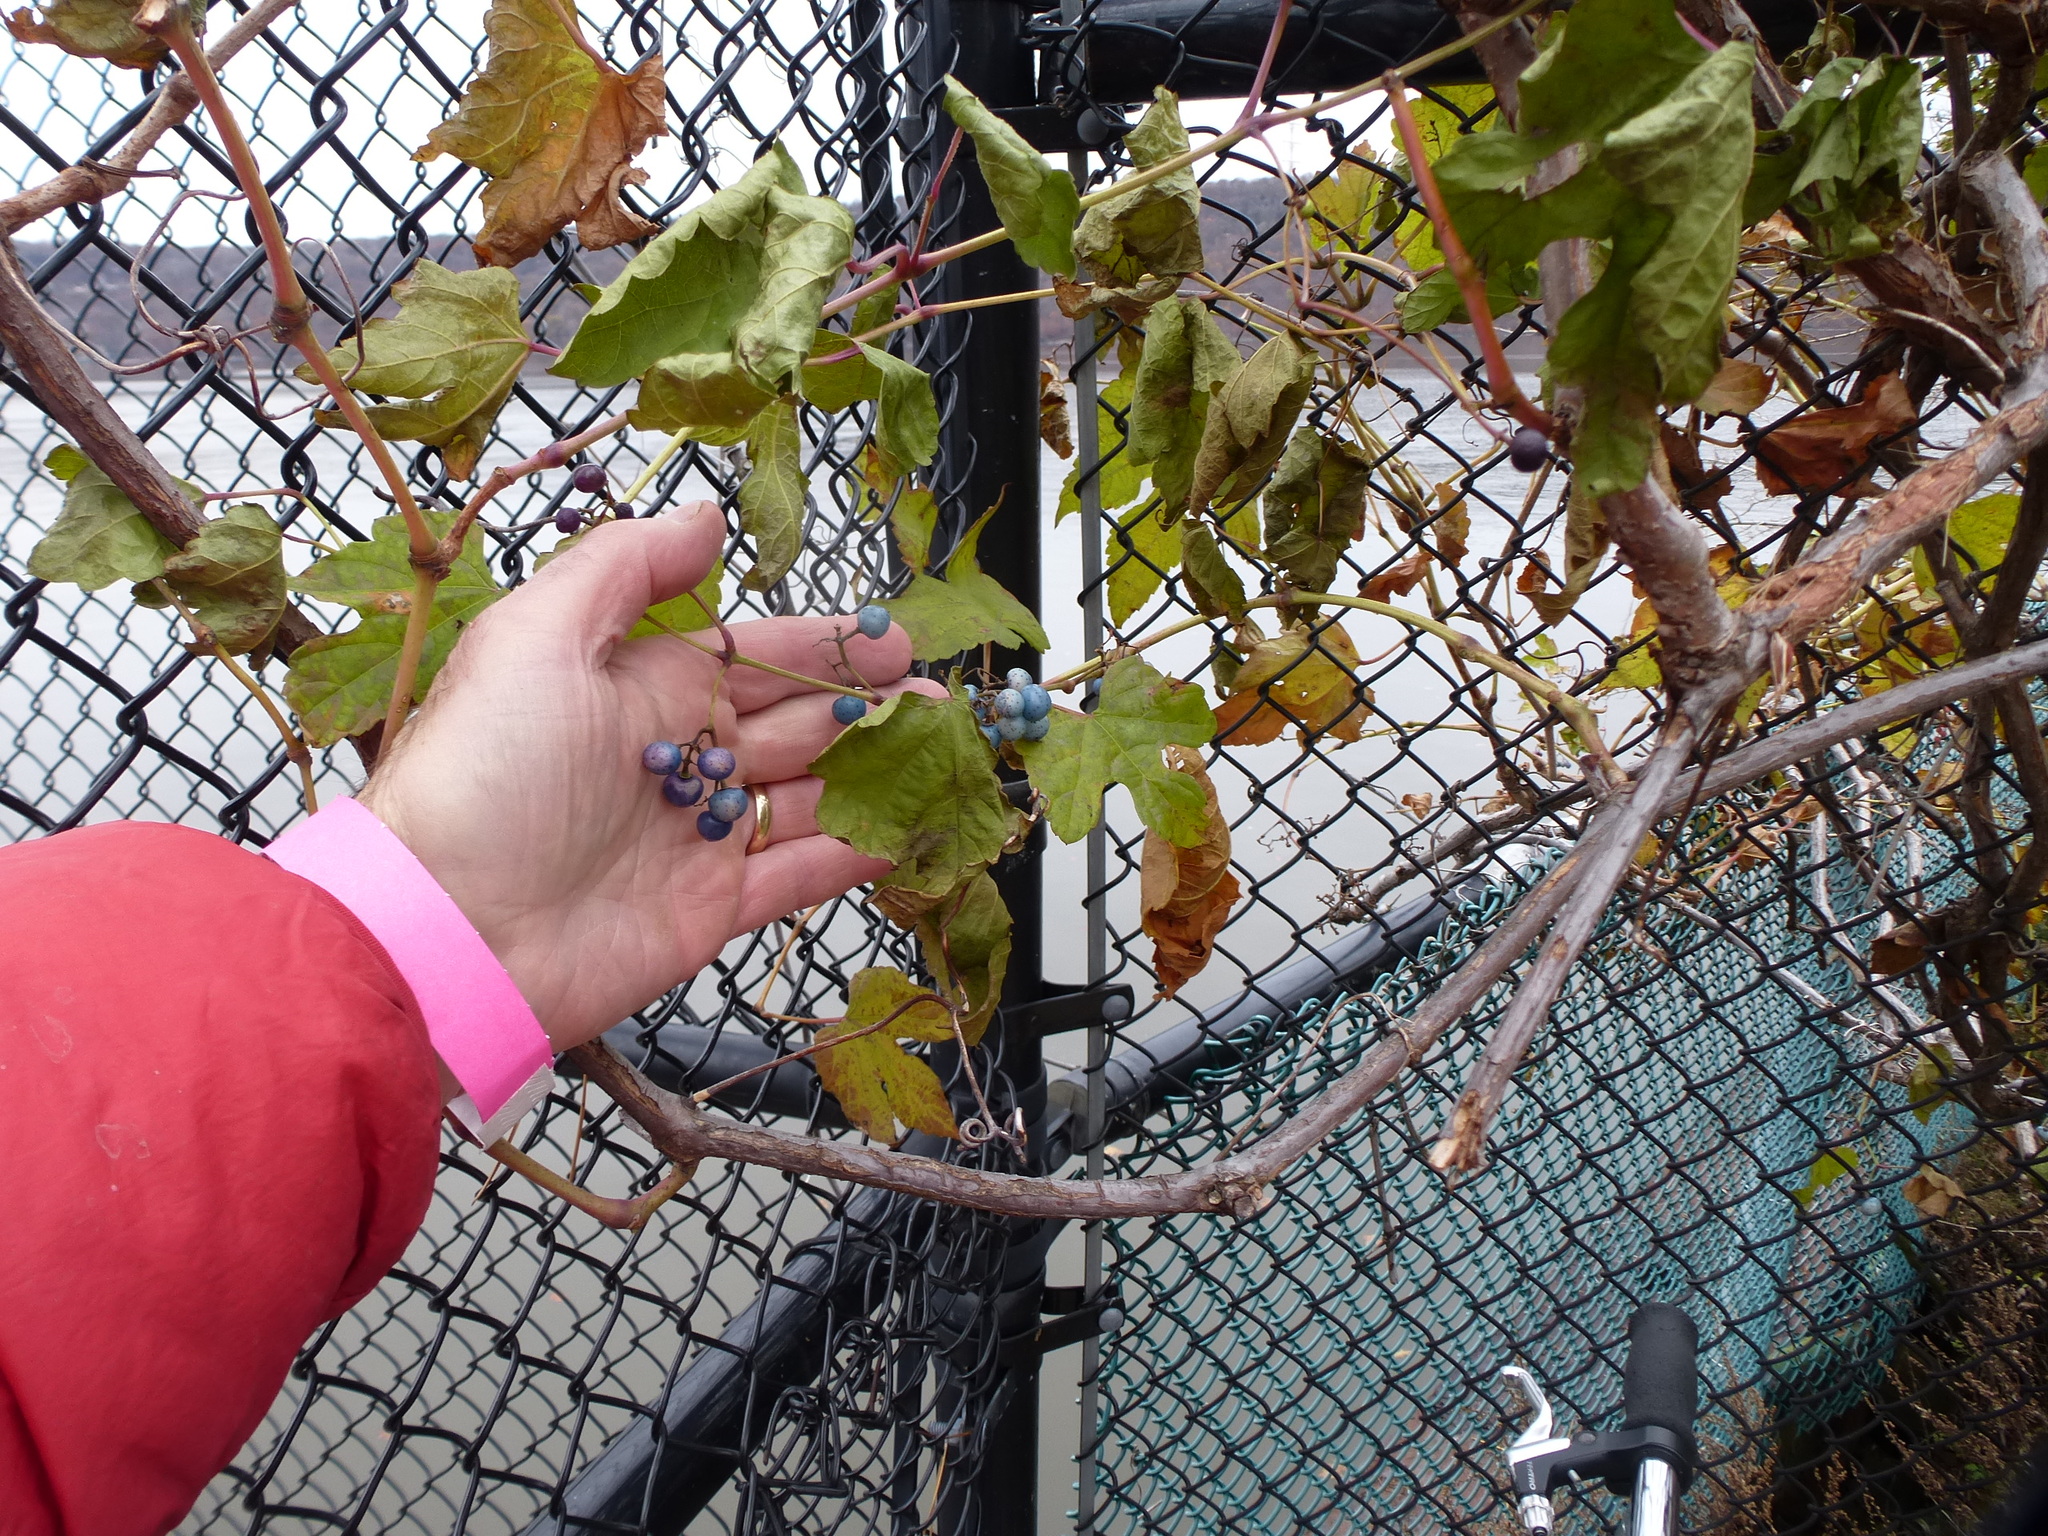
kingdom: Plantae
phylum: Tracheophyta
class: Magnoliopsida
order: Vitales
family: Vitaceae
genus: Ampelopsis
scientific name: Ampelopsis glandulosa
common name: Amur peppervine
